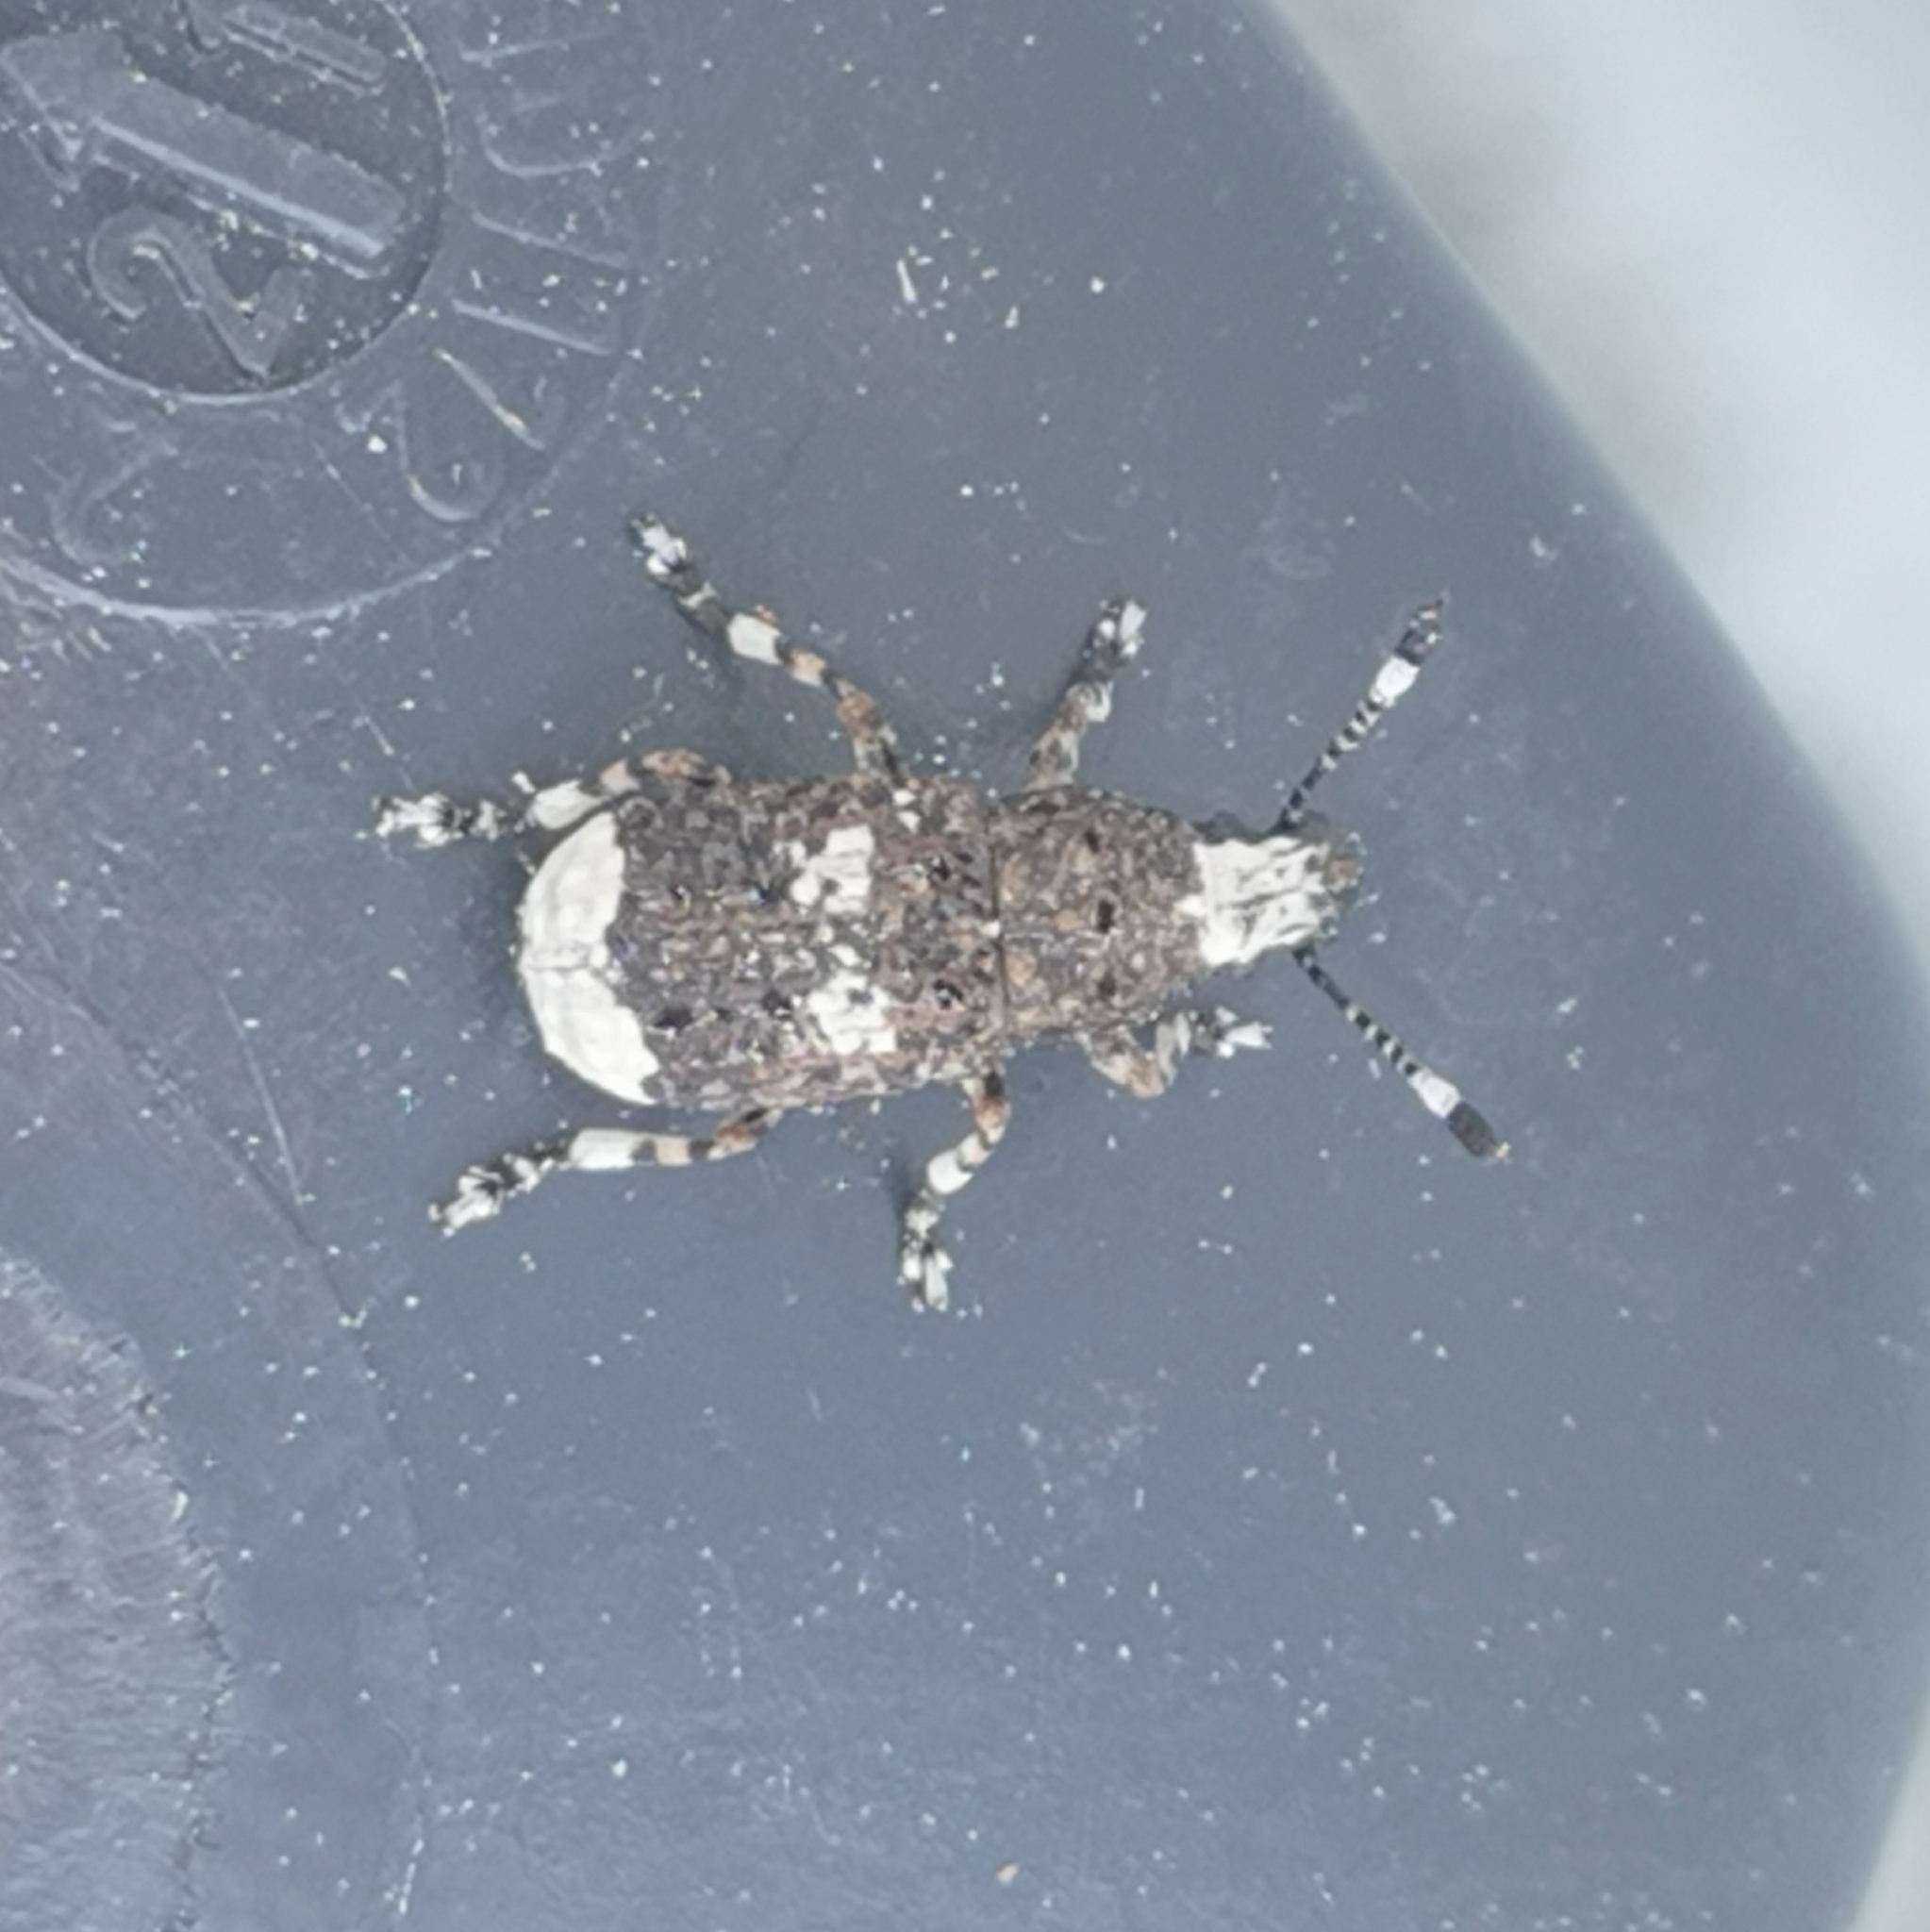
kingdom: Animalia
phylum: Arthropoda
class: Insecta
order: Coleoptera
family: Anthribidae
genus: Platystomos
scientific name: Platystomos albinus
